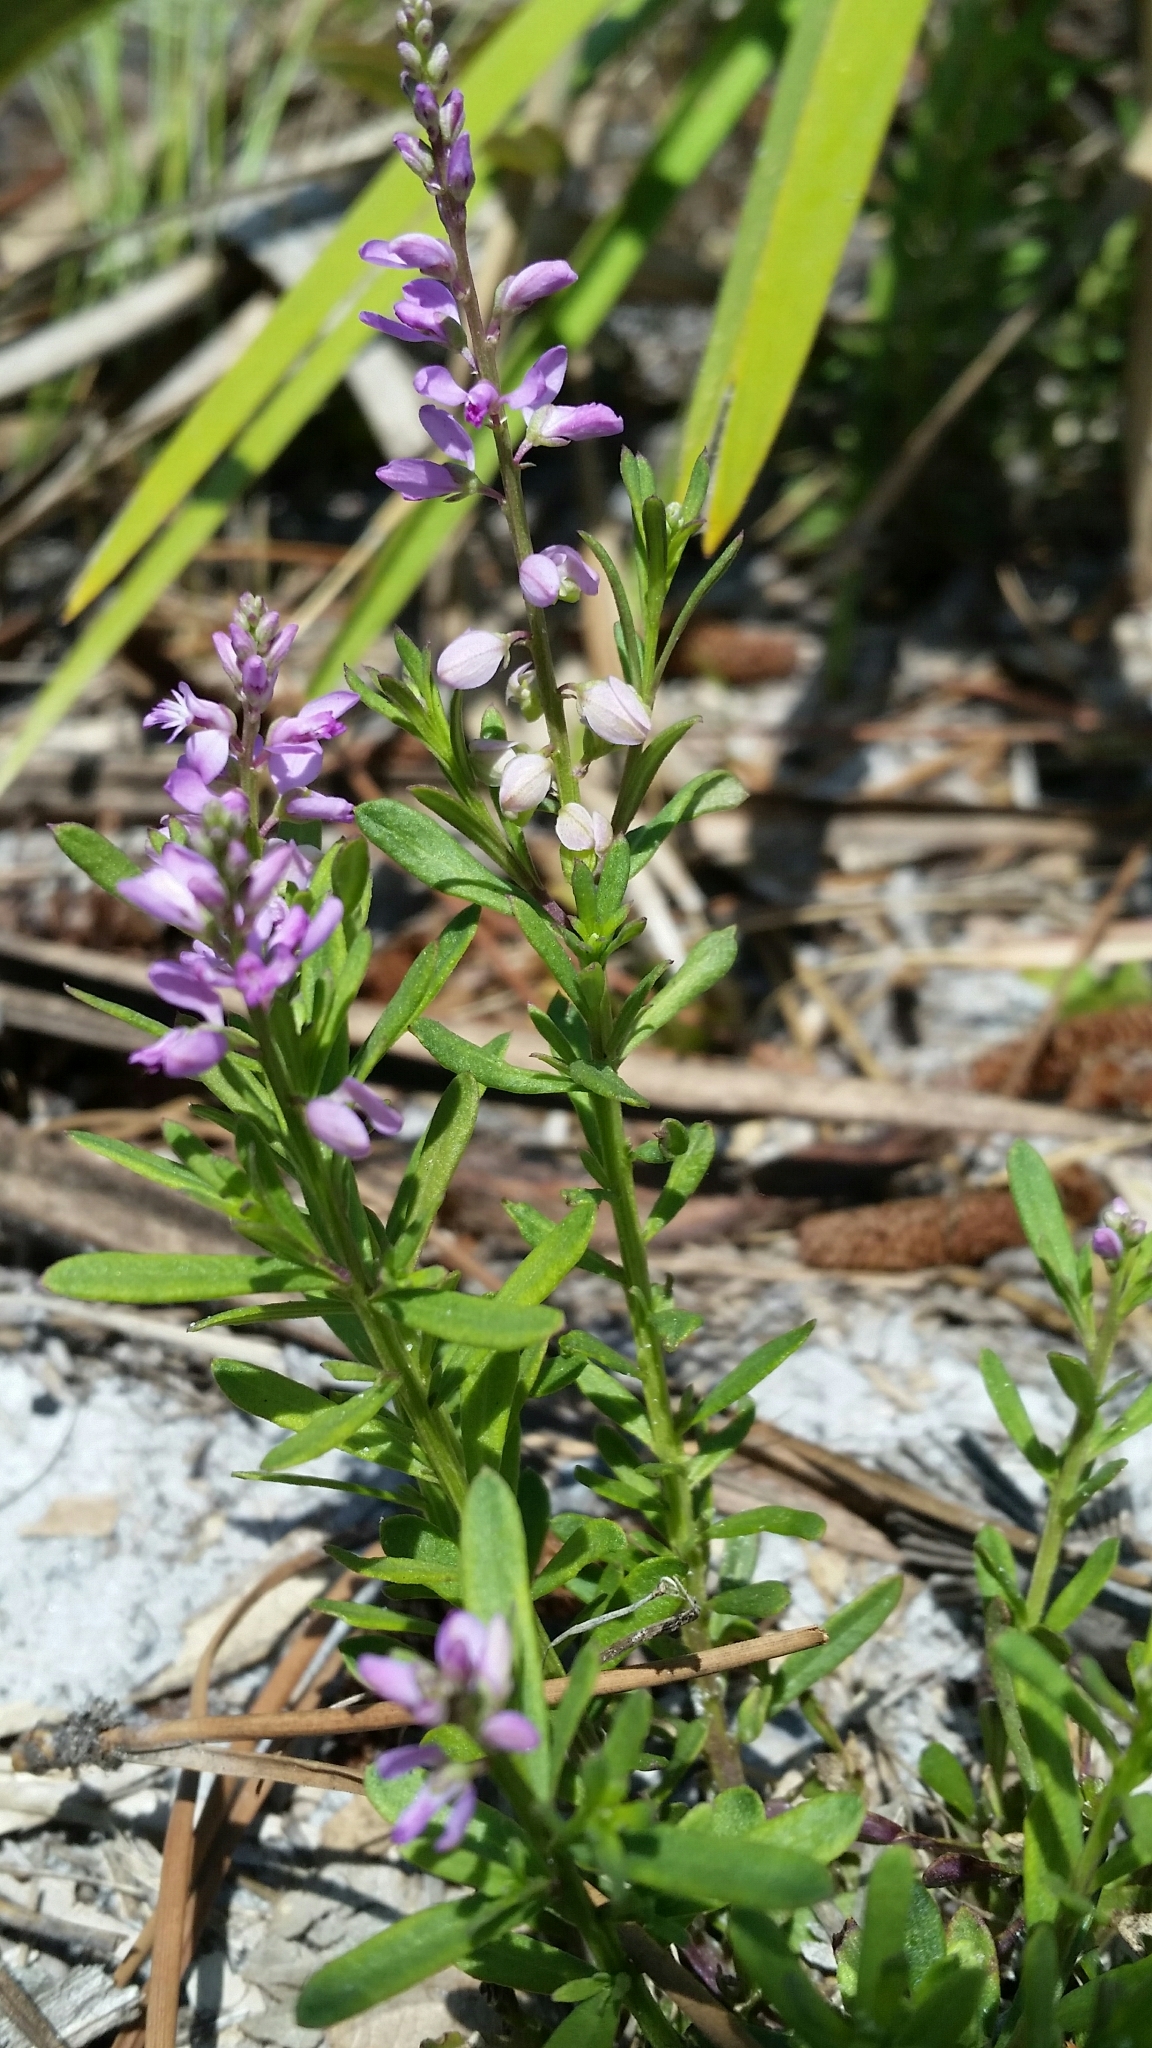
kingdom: Plantae
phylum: Tracheophyta
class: Magnoliopsida
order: Fabales
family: Polygalaceae
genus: Polygala
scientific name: Polygala polygama
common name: Bitter milkwort
